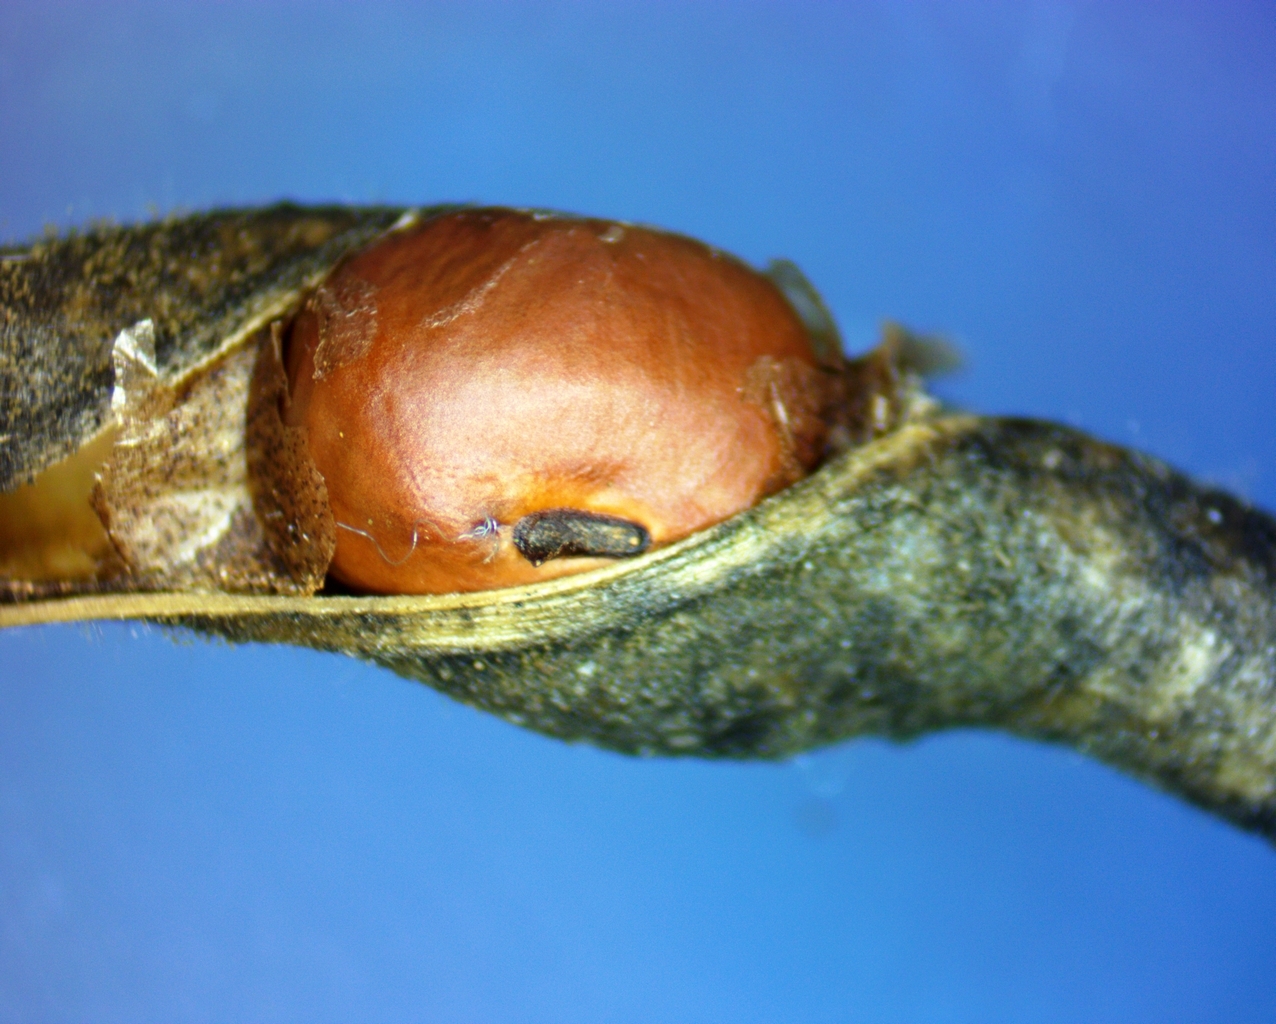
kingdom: Plantae
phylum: Tracheophyta
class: Magnoliopsida
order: Fabales
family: Fabaceae
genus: Apios
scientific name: Apios americana
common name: American potato-bean
